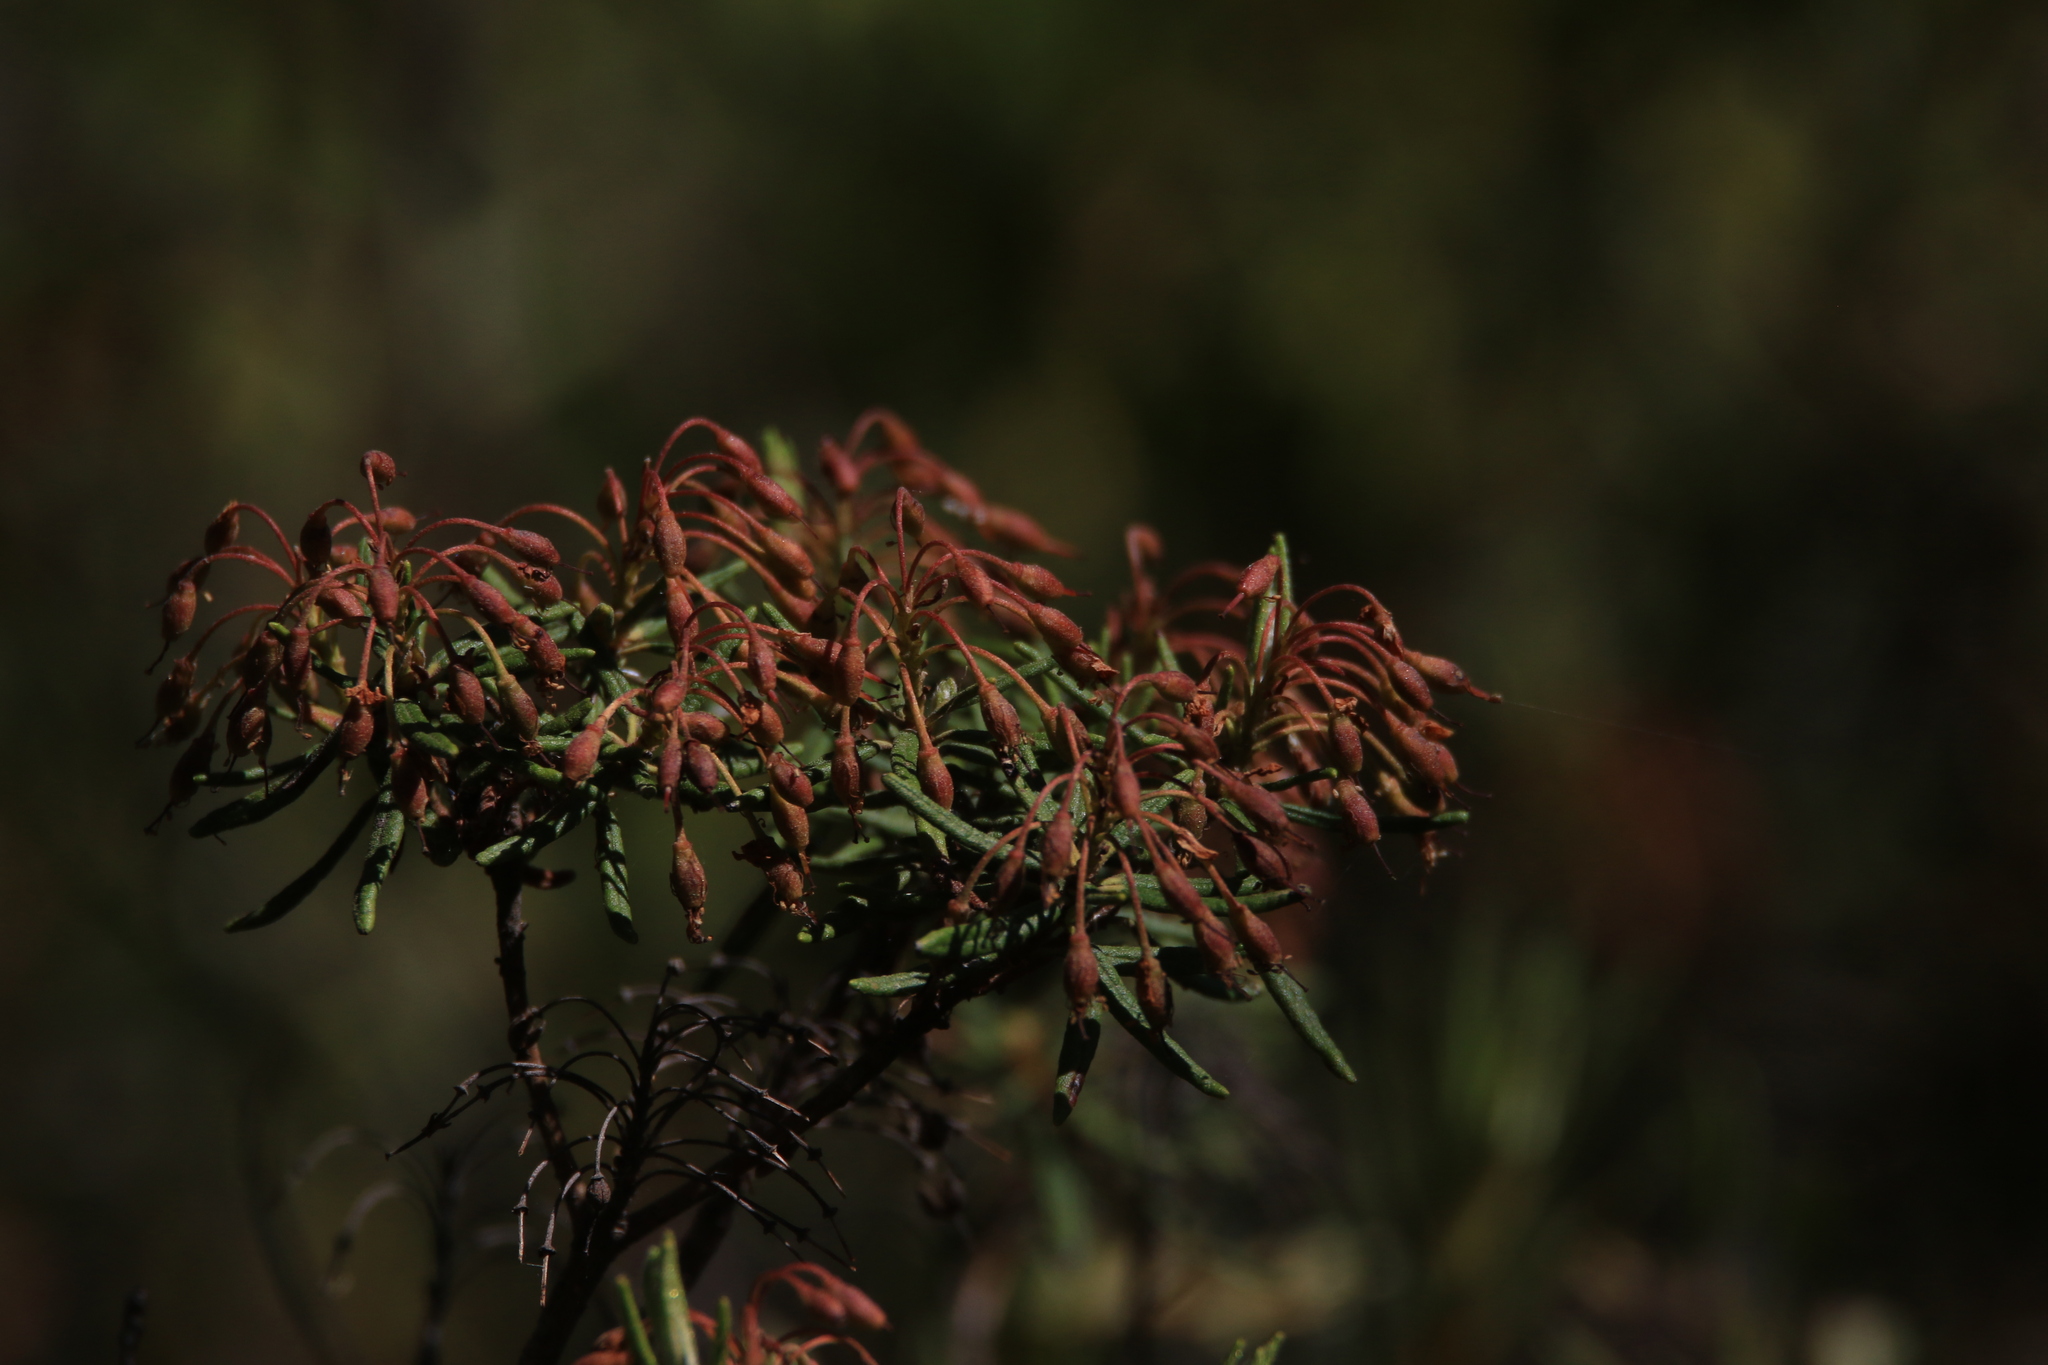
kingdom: Plantae
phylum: Tracheophyta
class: Magnoliopsida
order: Ericales
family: Ericaceae
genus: Rhododendron
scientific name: Rhododendron tomentosum
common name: Marsh labrador tea
